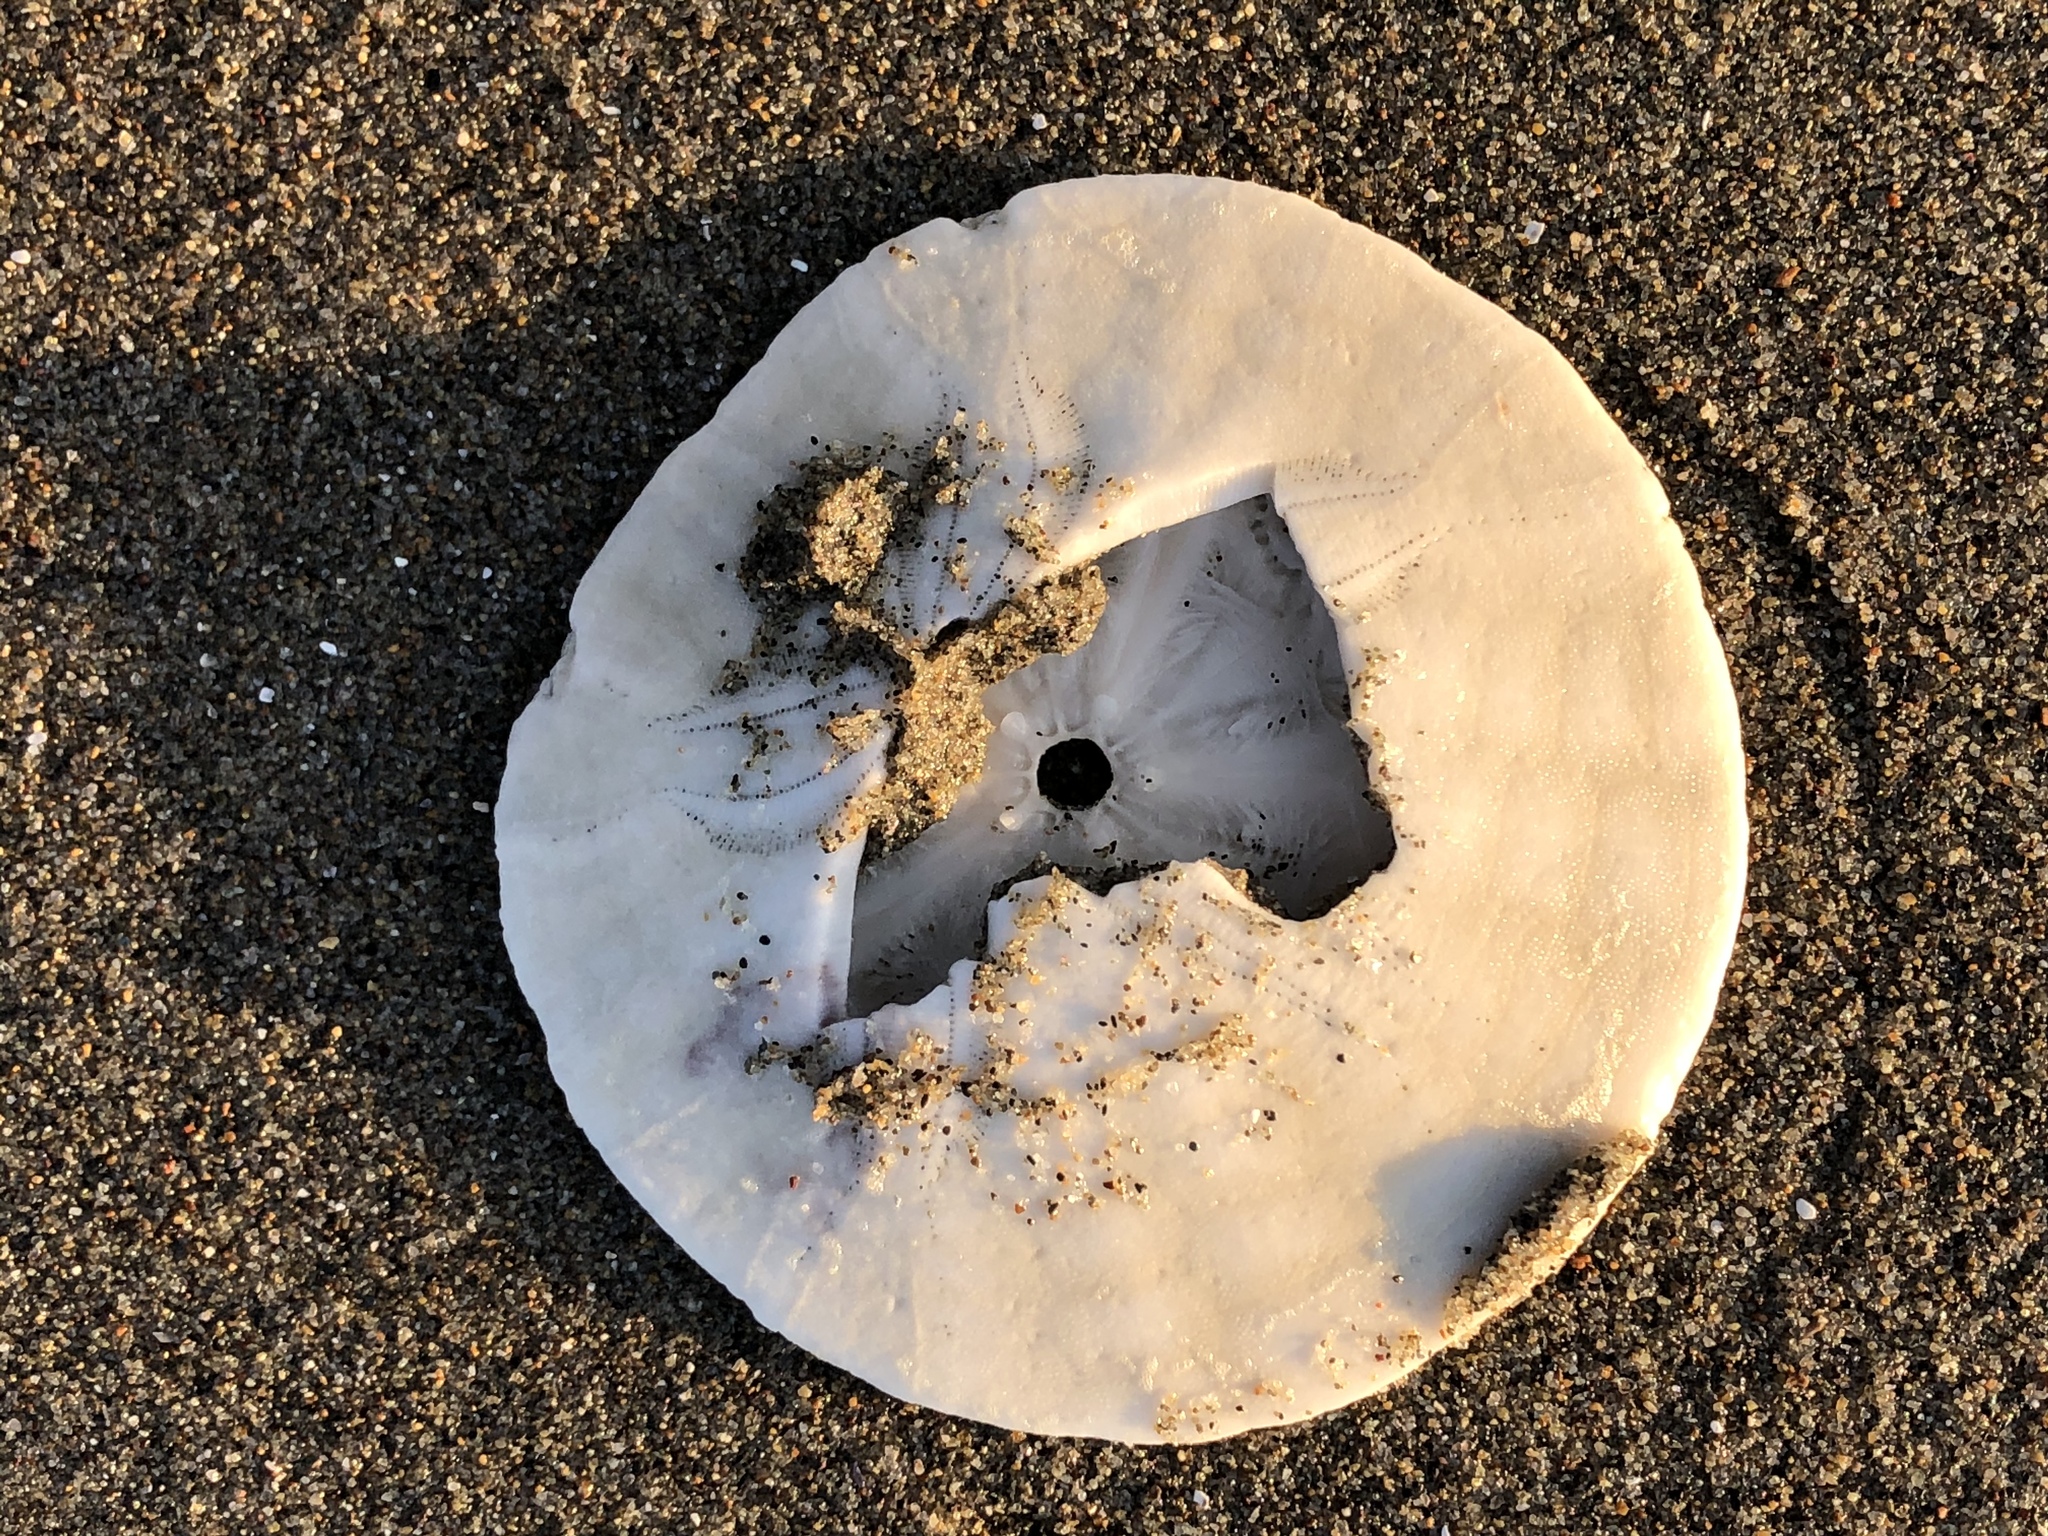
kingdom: Animalia
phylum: Echinodermata
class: Echinoidea
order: Echinolampadacea
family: Dendrasteridae
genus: Dendraster
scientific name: Dendraster excentricus
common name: Eccentric sand dollar sea urchin
